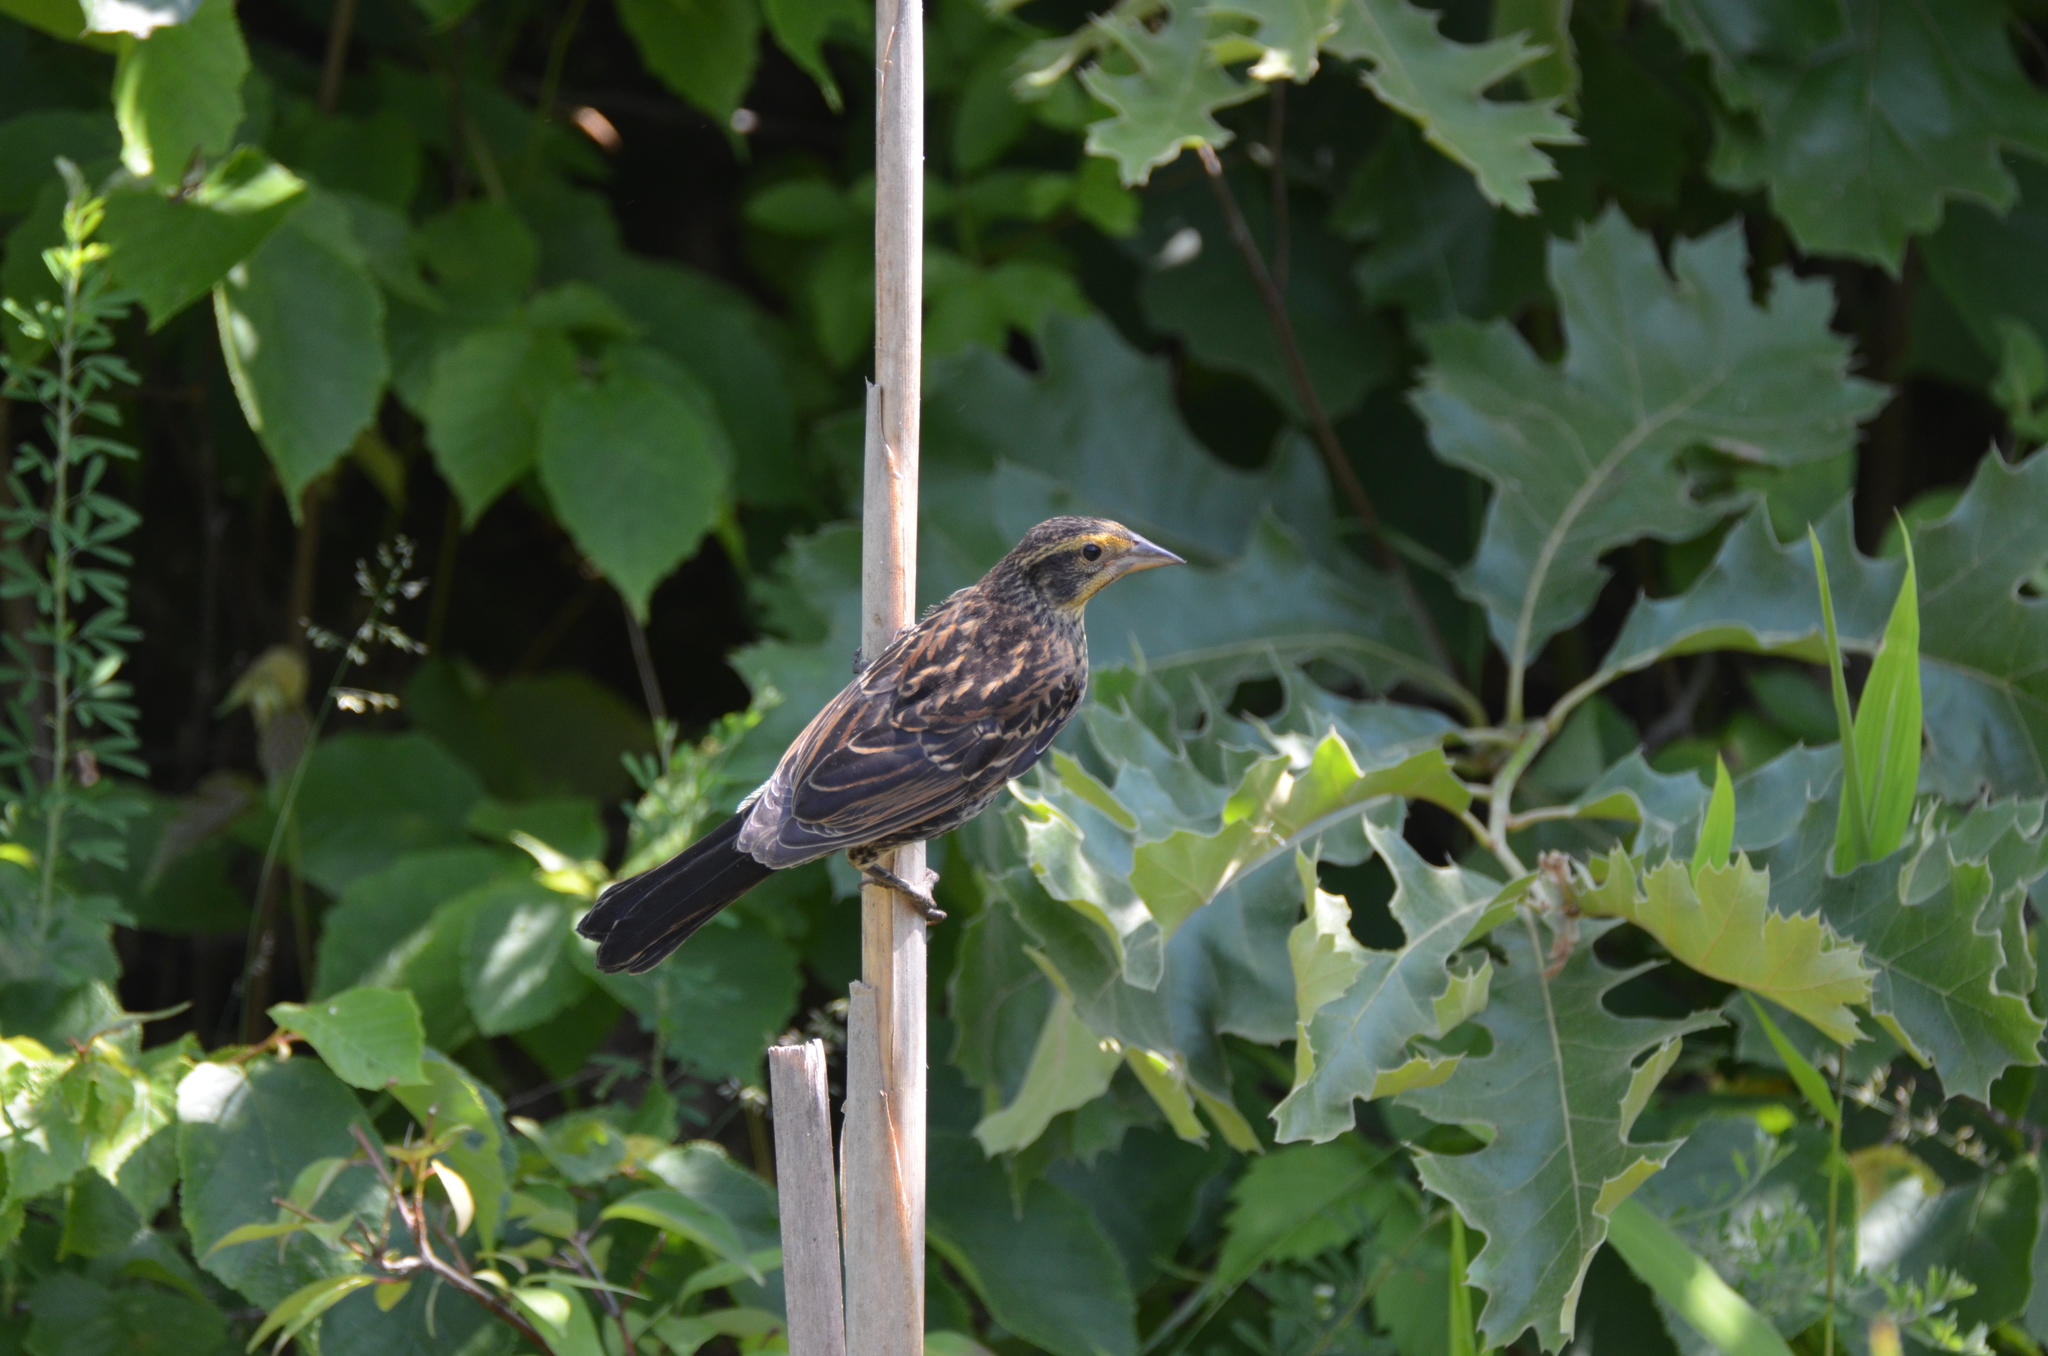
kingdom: Animalia
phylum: Chordata
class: Aves
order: Passeriformes
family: Icteridae
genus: Agelaius
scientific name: Agelaius phoeniceus
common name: Red-winged blackbird
